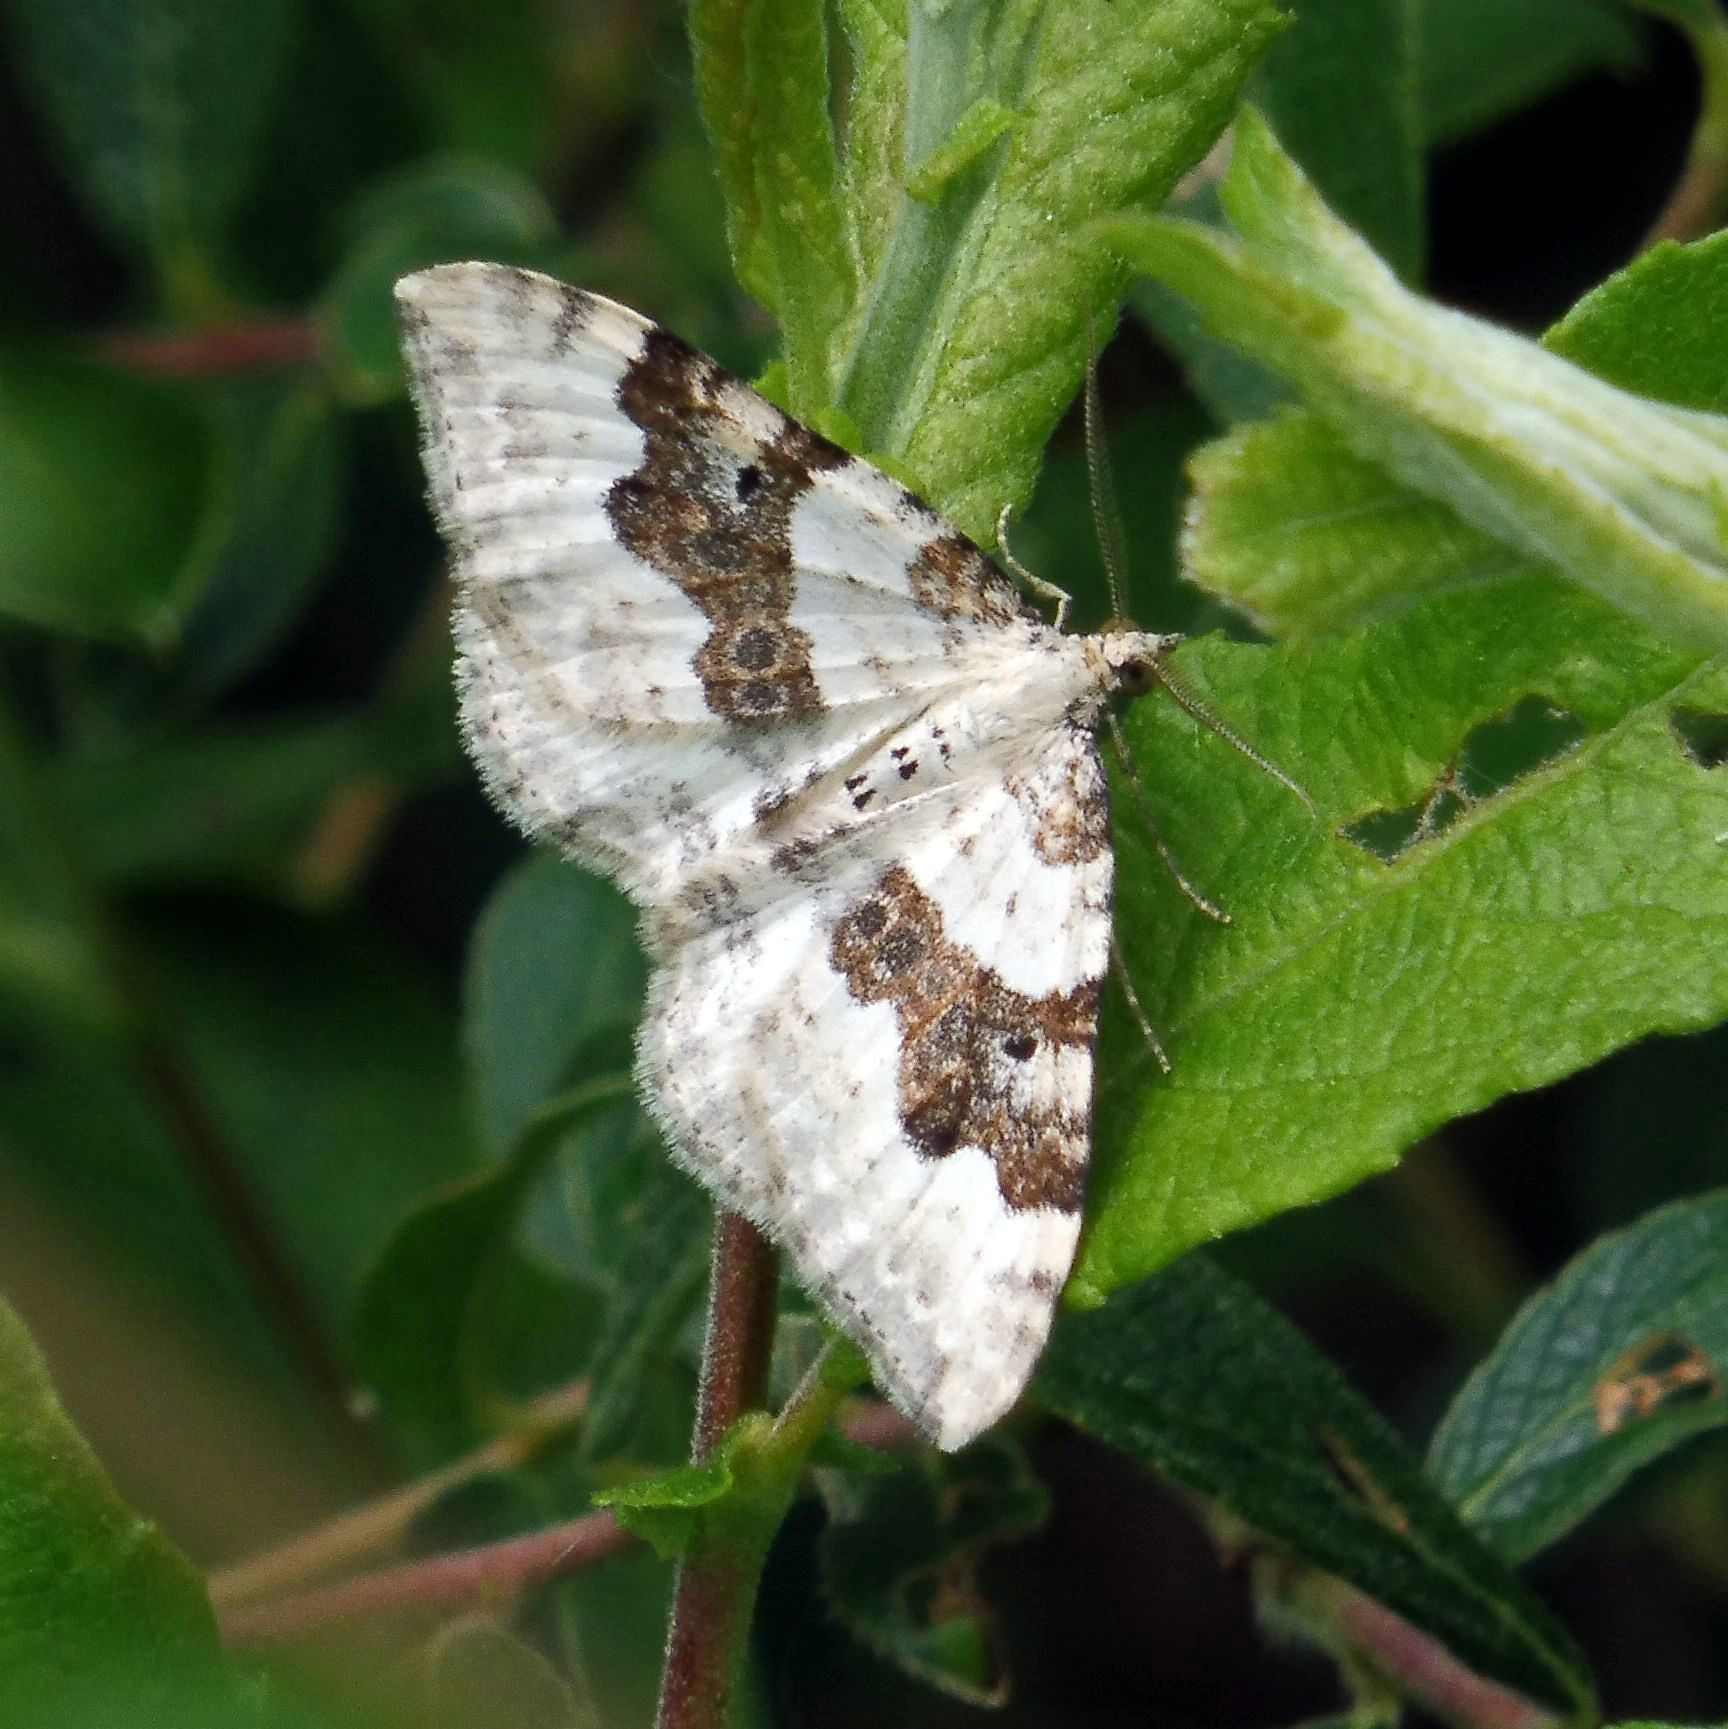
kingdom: Animalia
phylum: Arthropoda
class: Insecta
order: Lepidoptera
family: Geometridae
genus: Xanthorhoe
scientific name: Xanthorhoe montanata
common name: Silver-ground carpet
